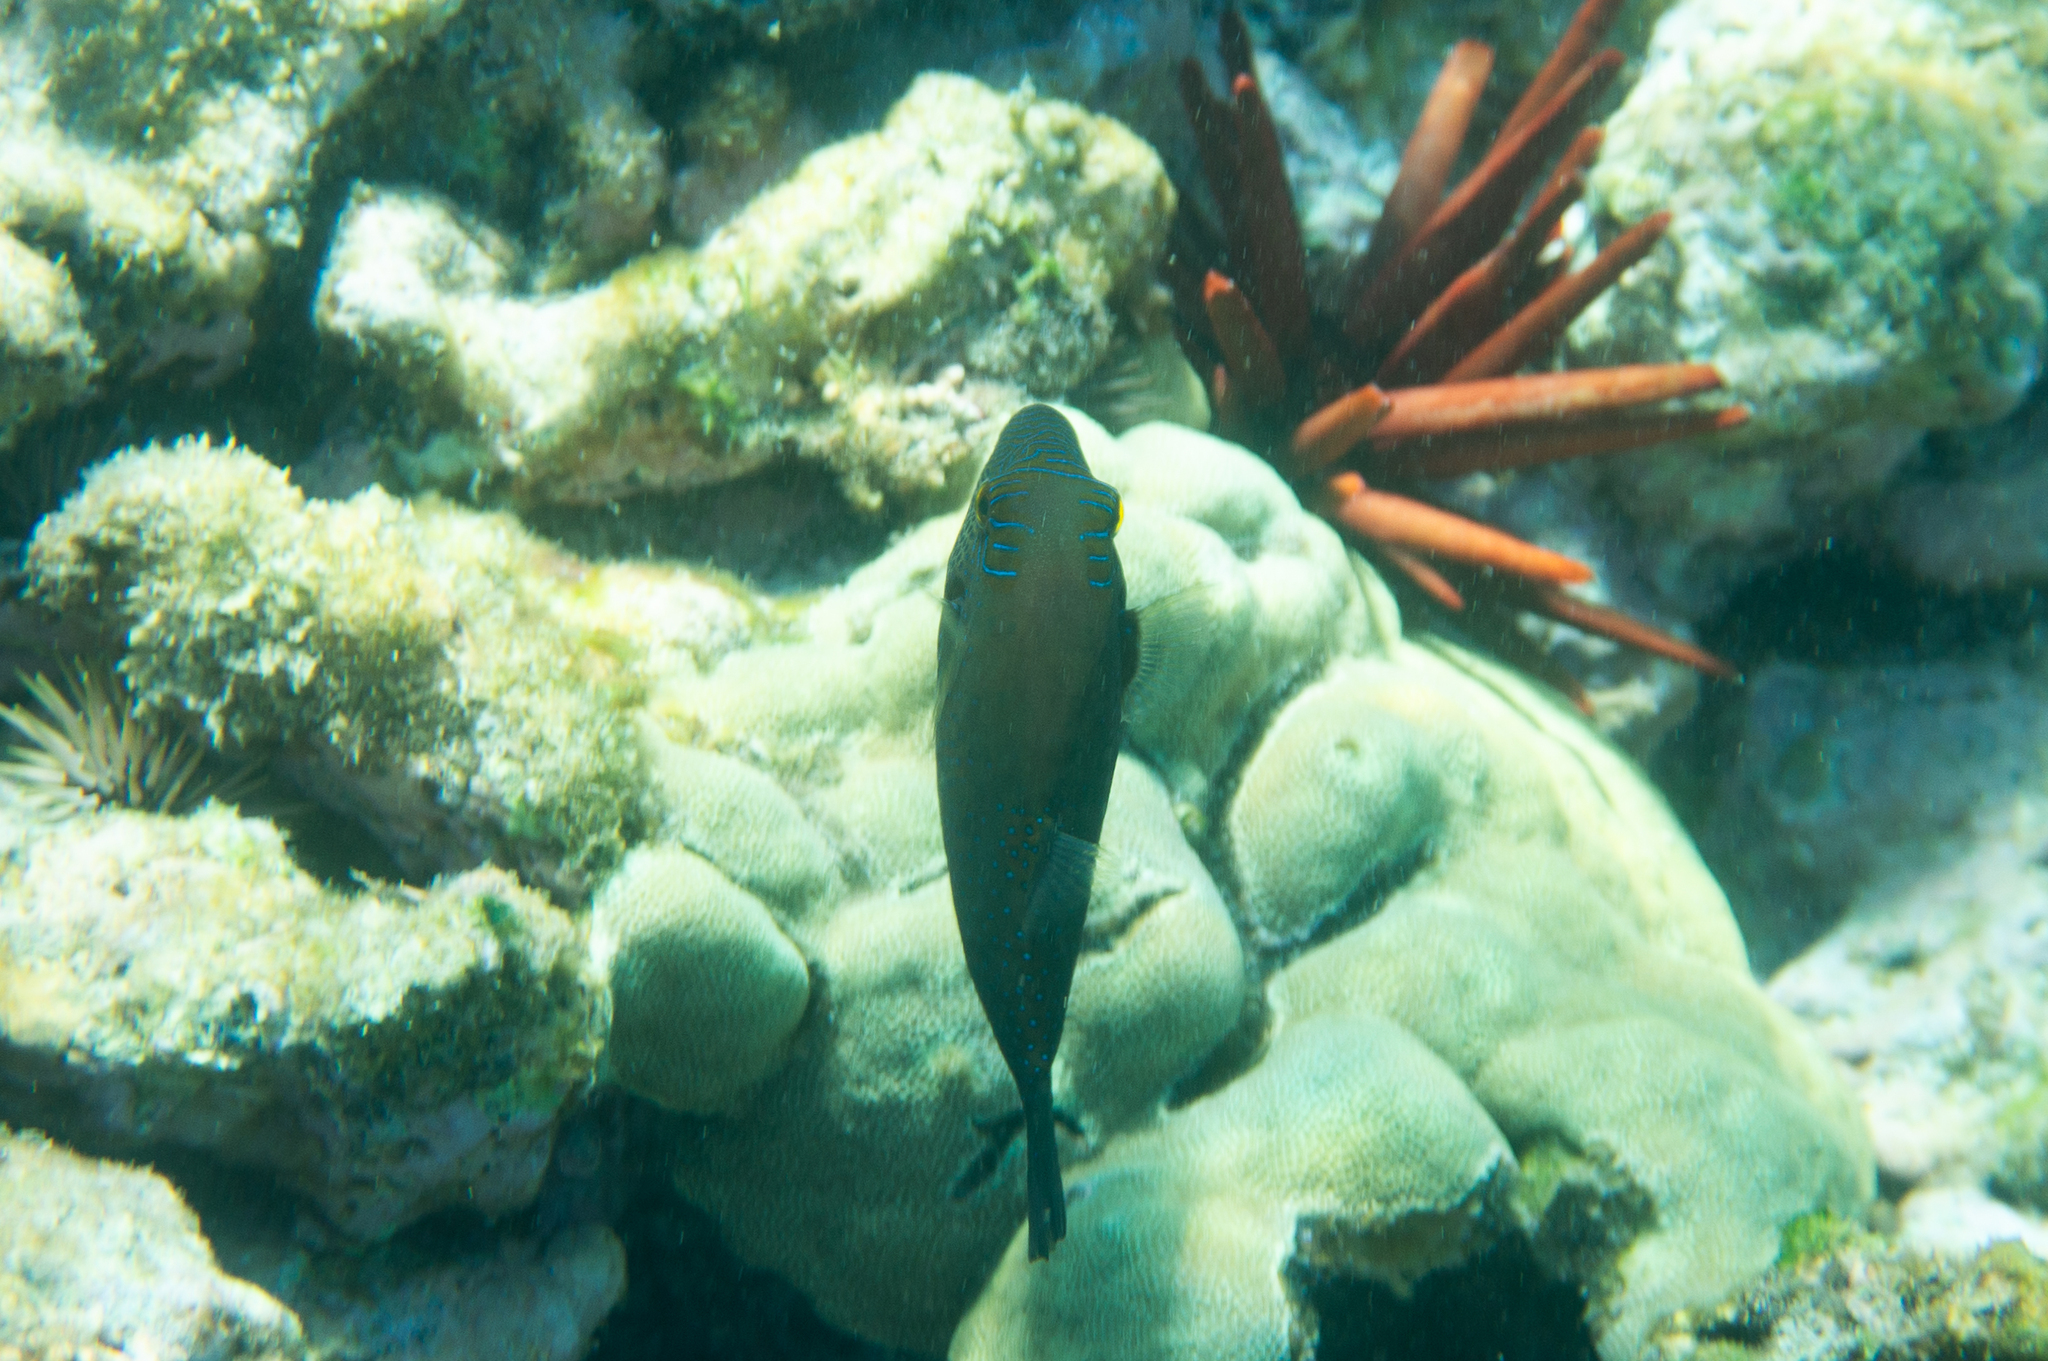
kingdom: Animalia
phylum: Chordata
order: Tetraodontiformes
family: Tetraodontidae
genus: Canthigaster
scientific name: Canthigaster amboinensis
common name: Ambon pufferfish
